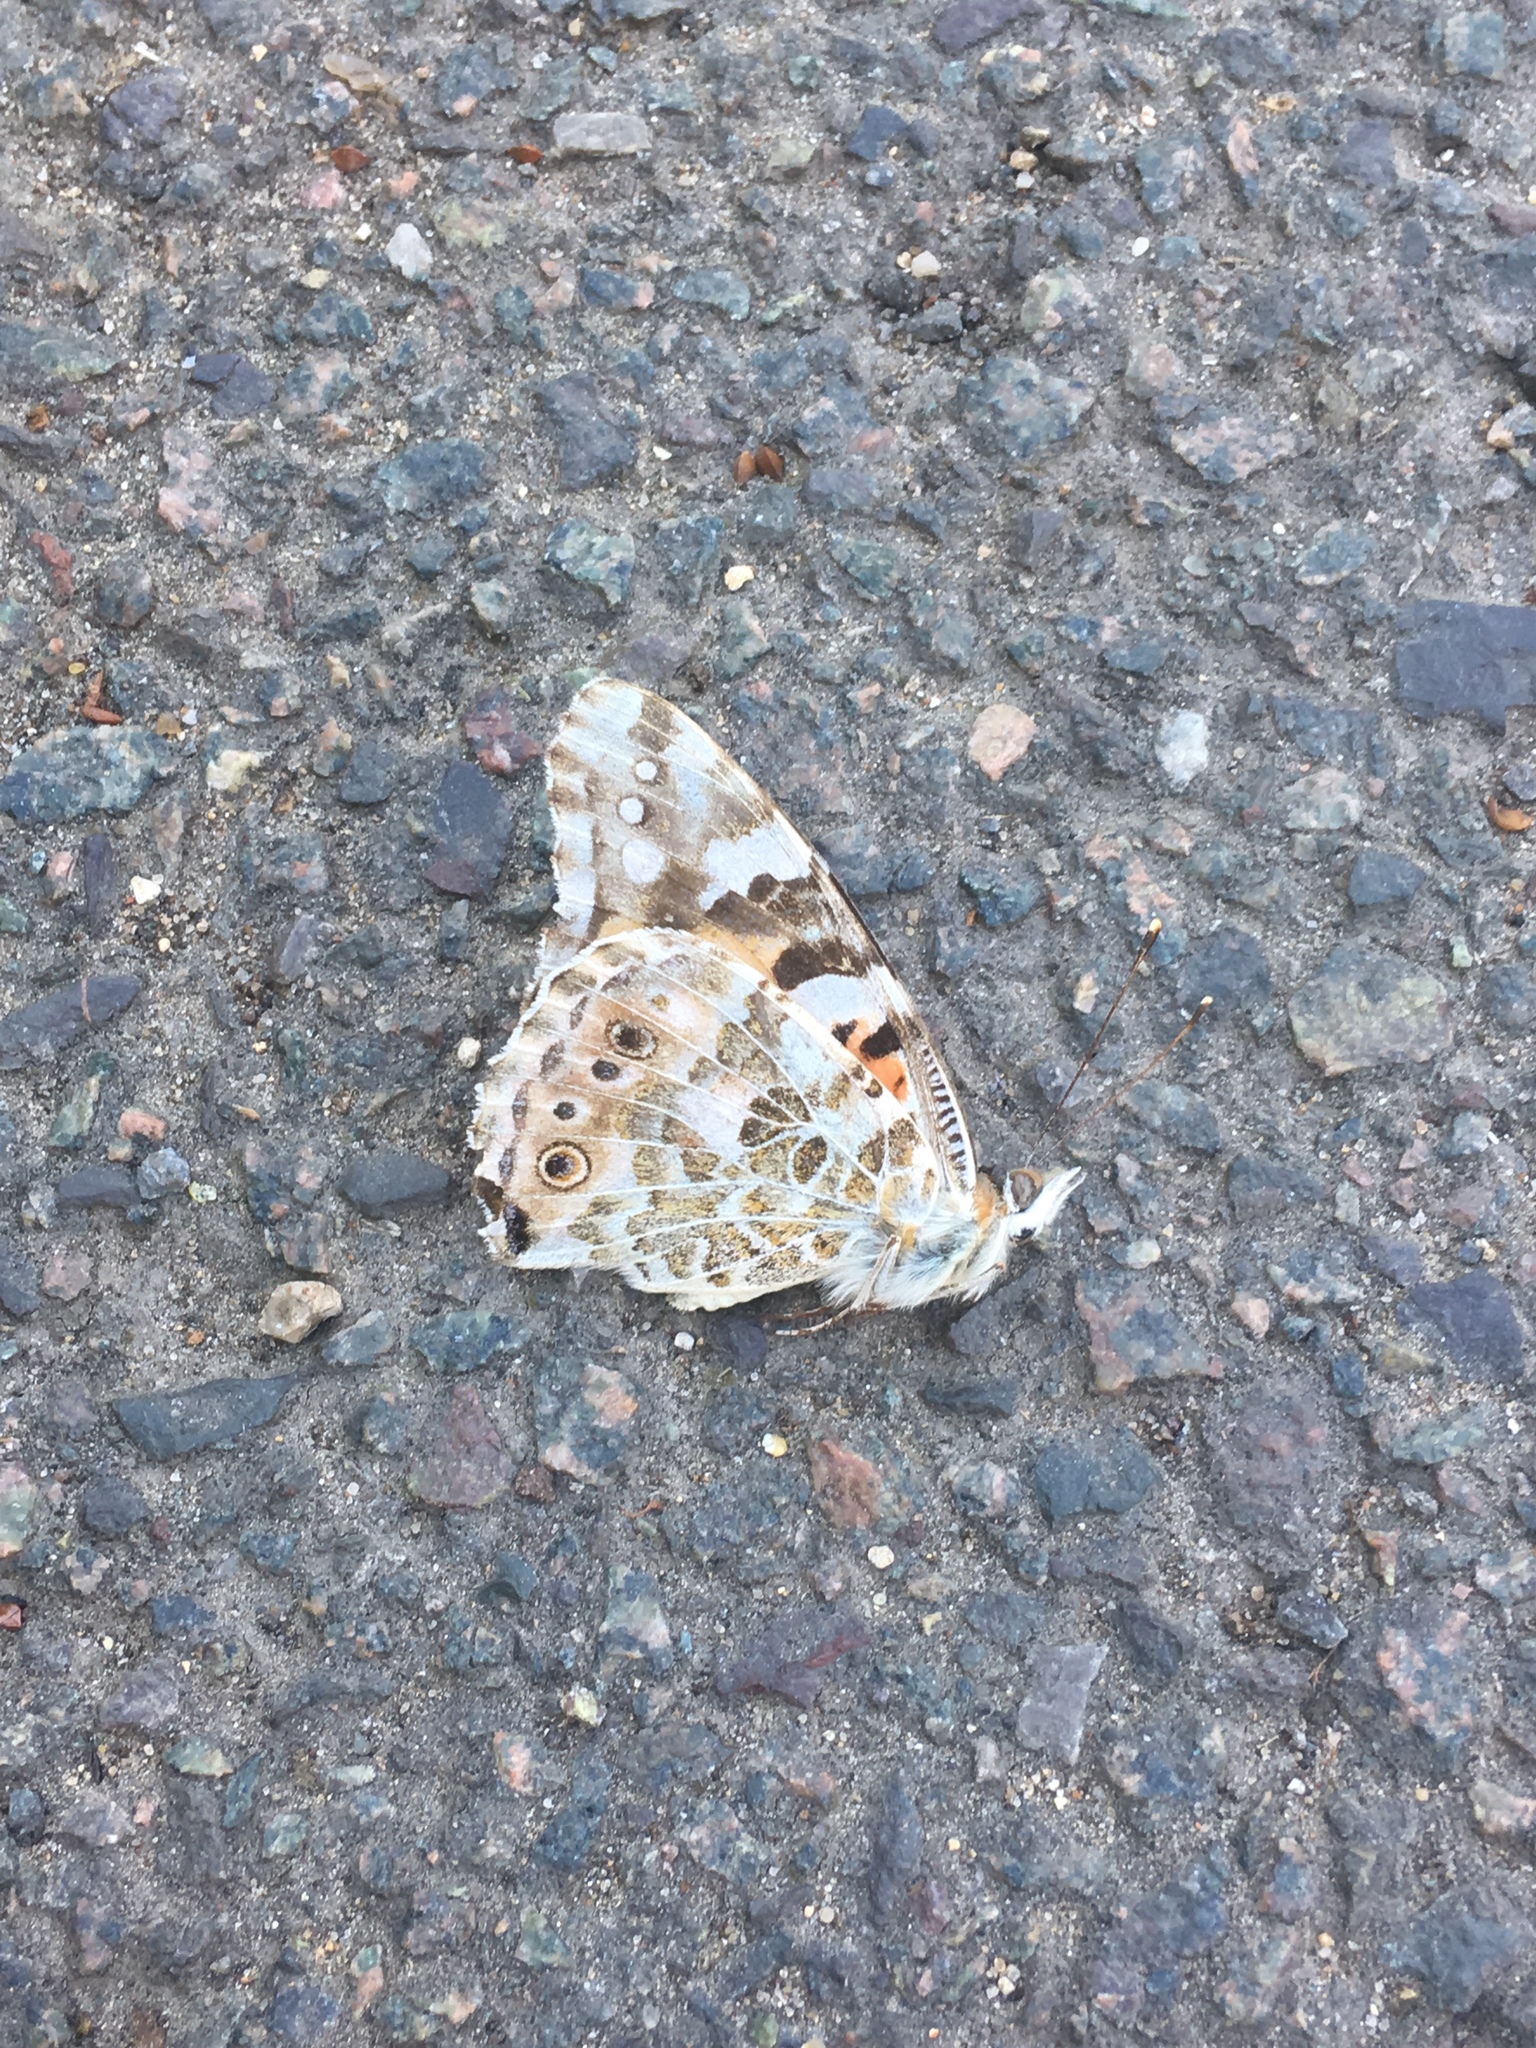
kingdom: Animalia
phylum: Arthropoda
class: Insecta
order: Lepidoptera
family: Nymphalidae
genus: Vanessa
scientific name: Vanessa cardui
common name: Painted lady
